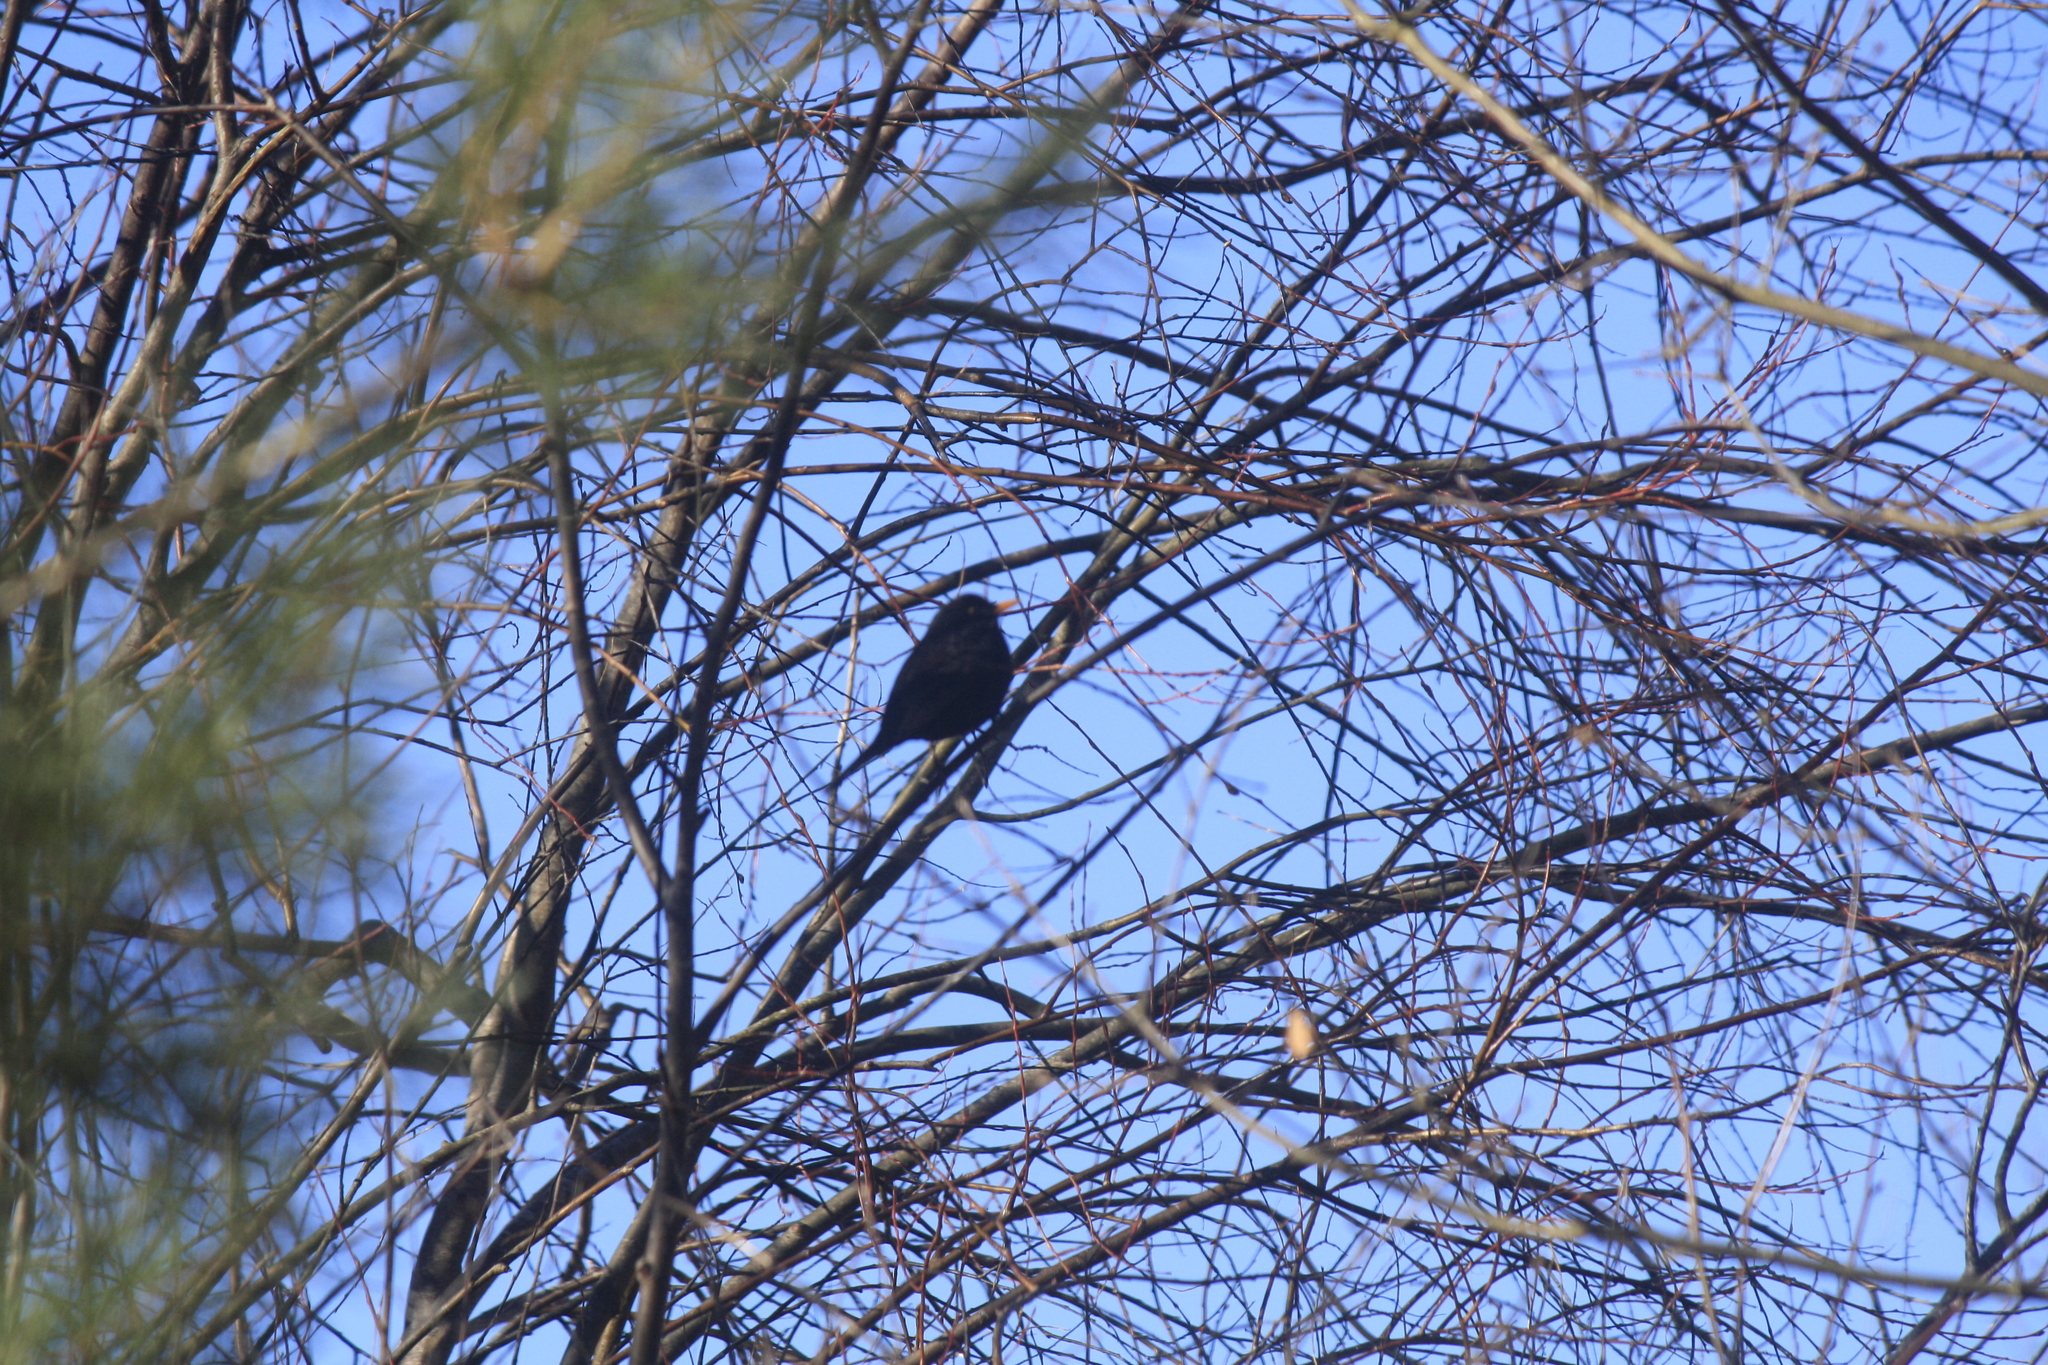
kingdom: Animalia
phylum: Chordata
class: Aves
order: Passeriformes
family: Turdidae
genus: Turdus
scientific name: Turdus merula
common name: Common blackbird
